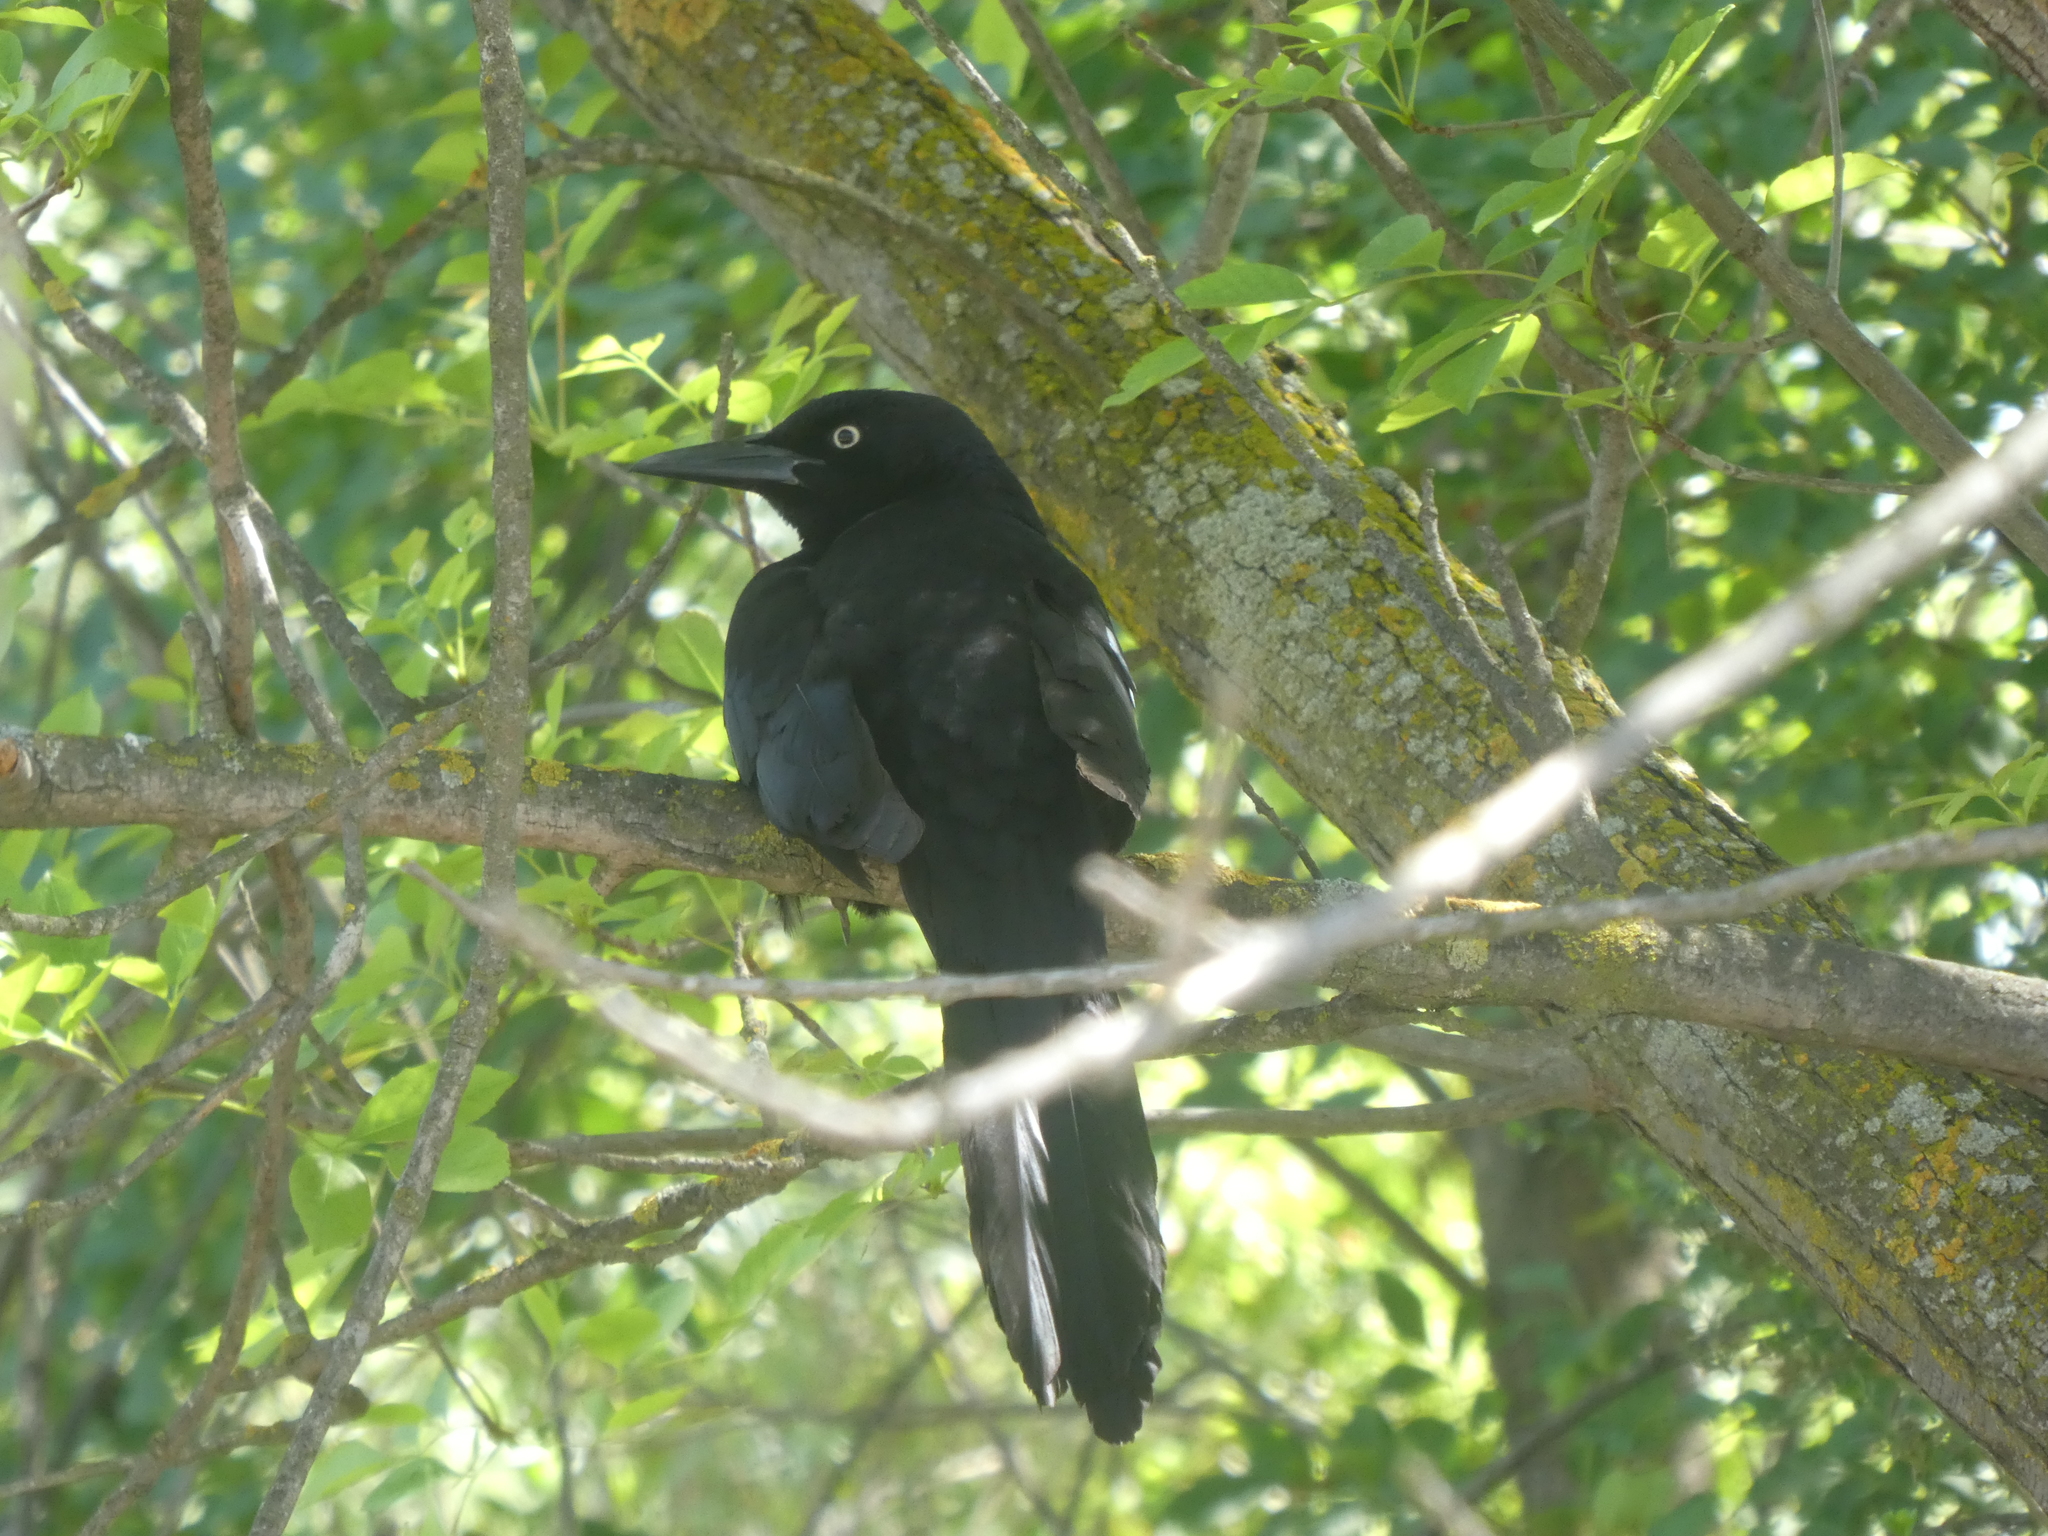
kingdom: Animalia
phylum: Chordata
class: Aves
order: Passeriformes
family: Icteridae
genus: Quiscalus
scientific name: Quiscalus mexicanus
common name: Great-tailed grackle
